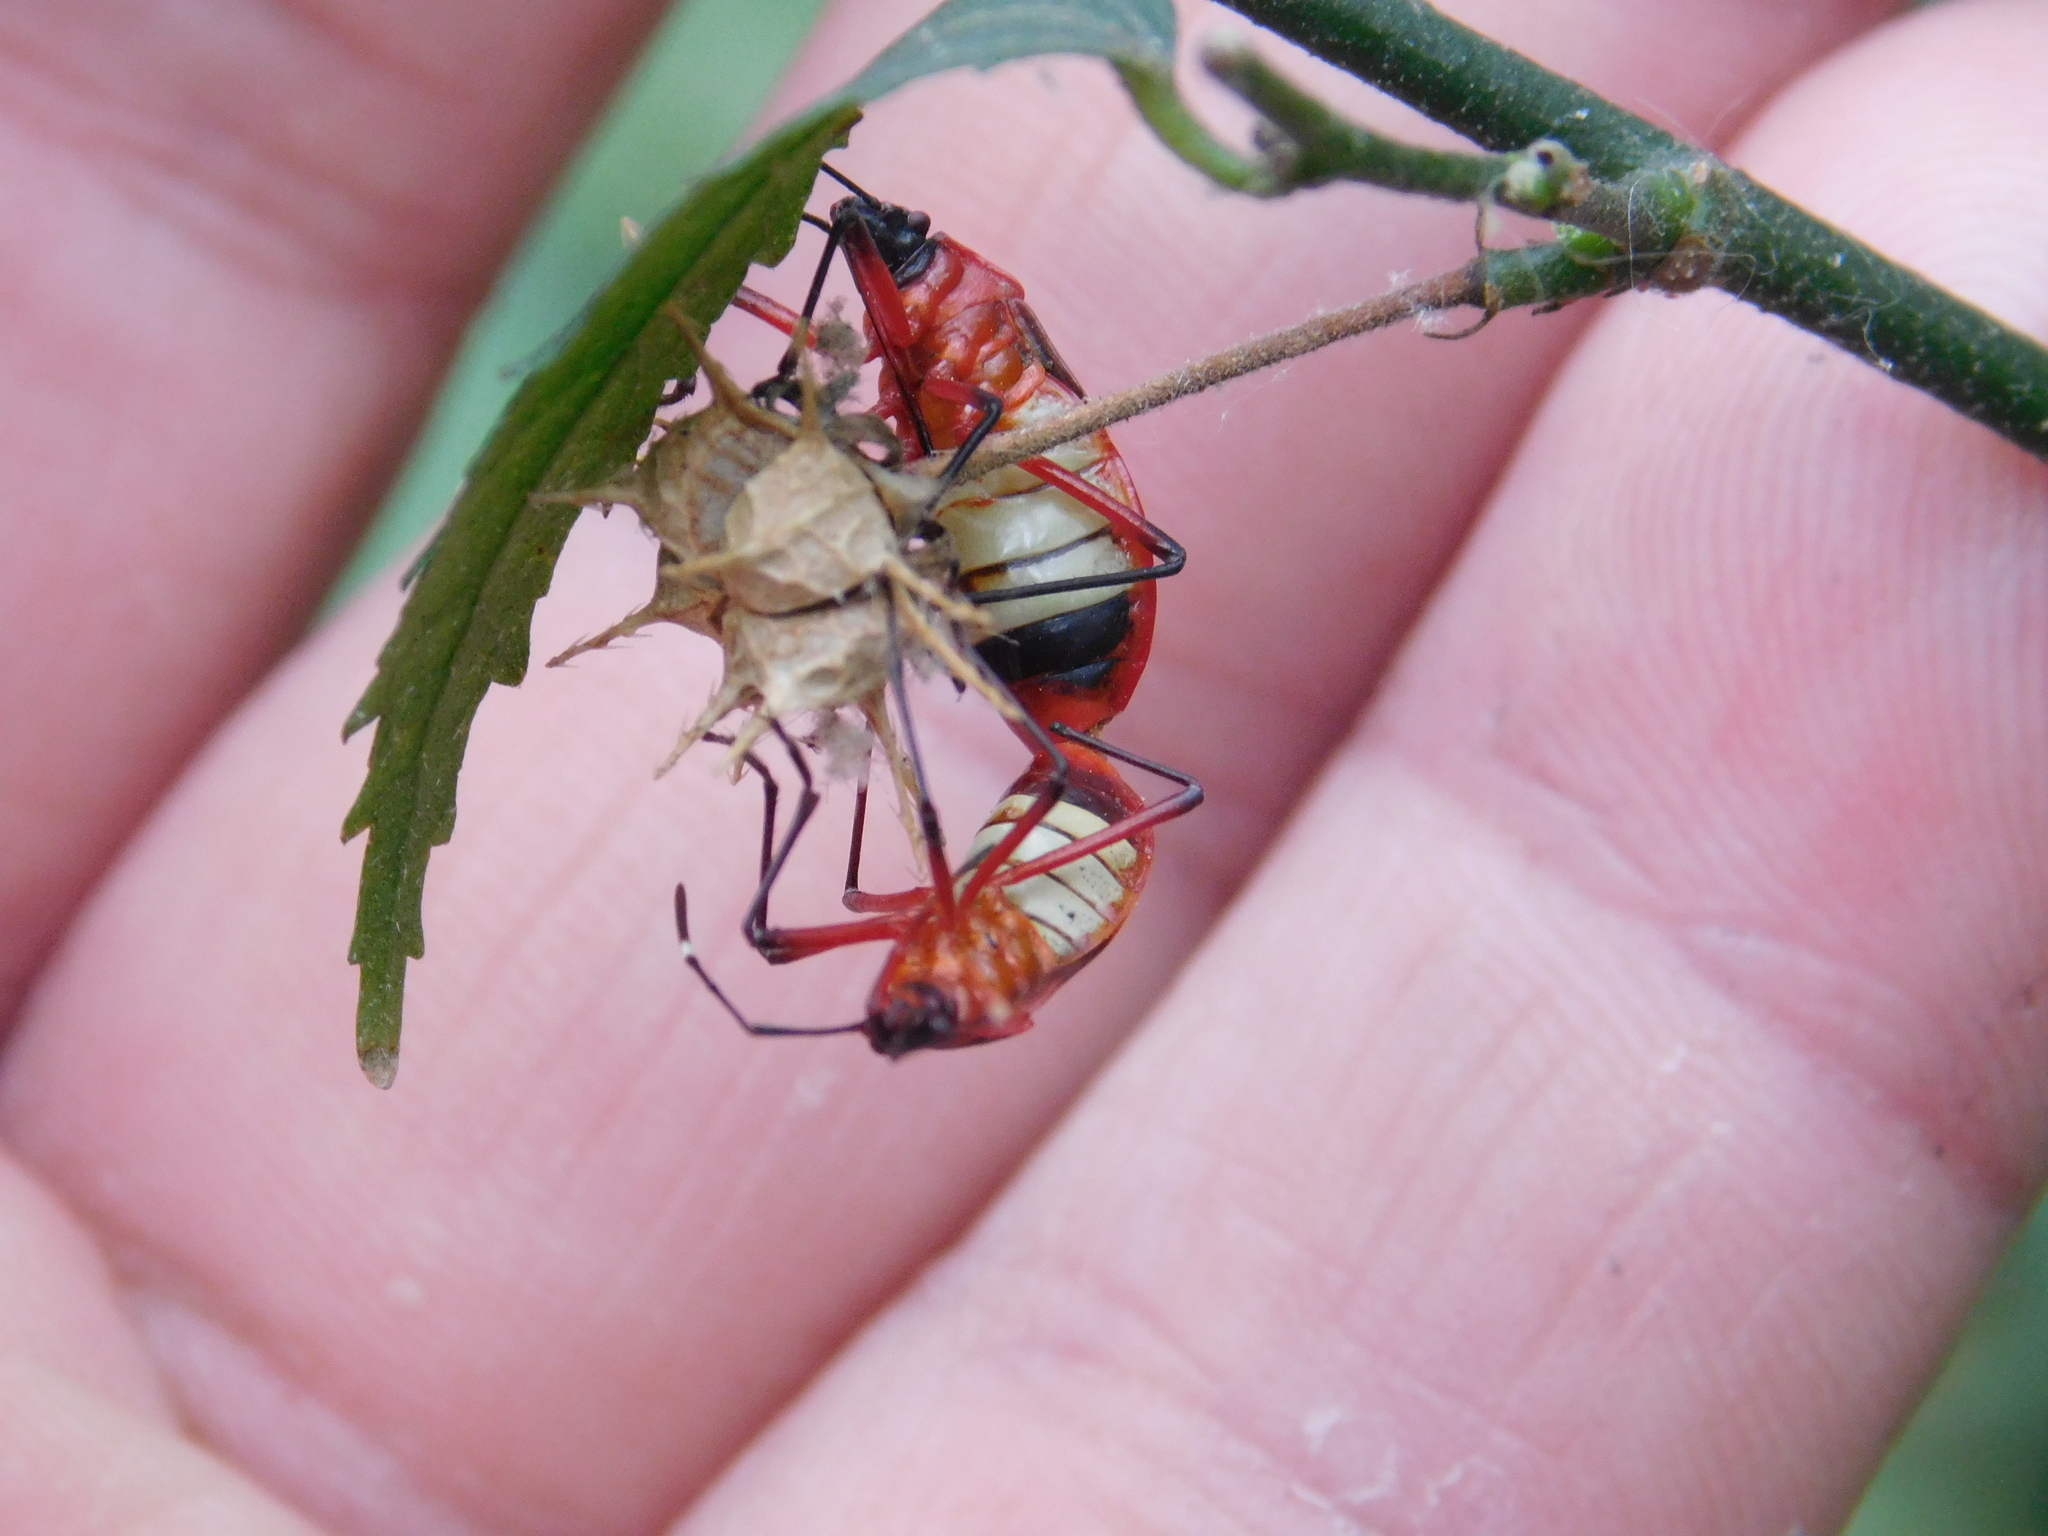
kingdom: Animalia
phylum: Arthropoda
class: Insecta
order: Hemiptera
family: Pyrrhocoridae
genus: Dysdercus
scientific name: Dysdercus albofasciatus
